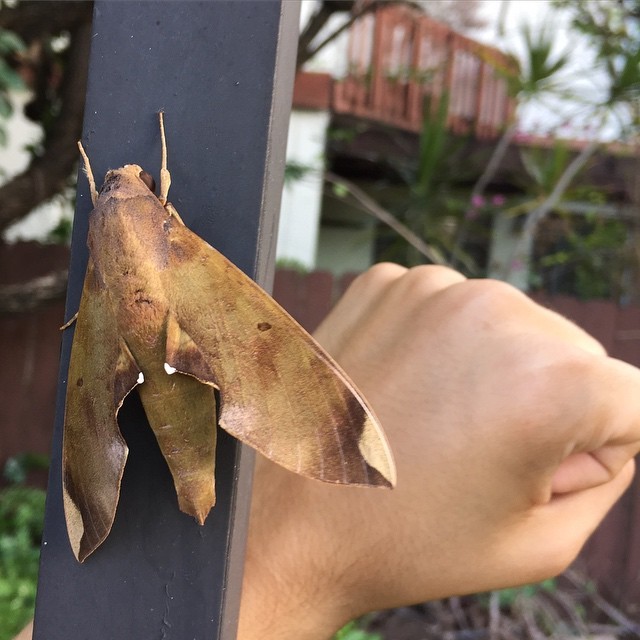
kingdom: Animalia
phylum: Arthropoda
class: Insecta
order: Lepidoptera
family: Sphingidae
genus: Pachylia
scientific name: Pachylia ficus
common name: Fig sphinx
